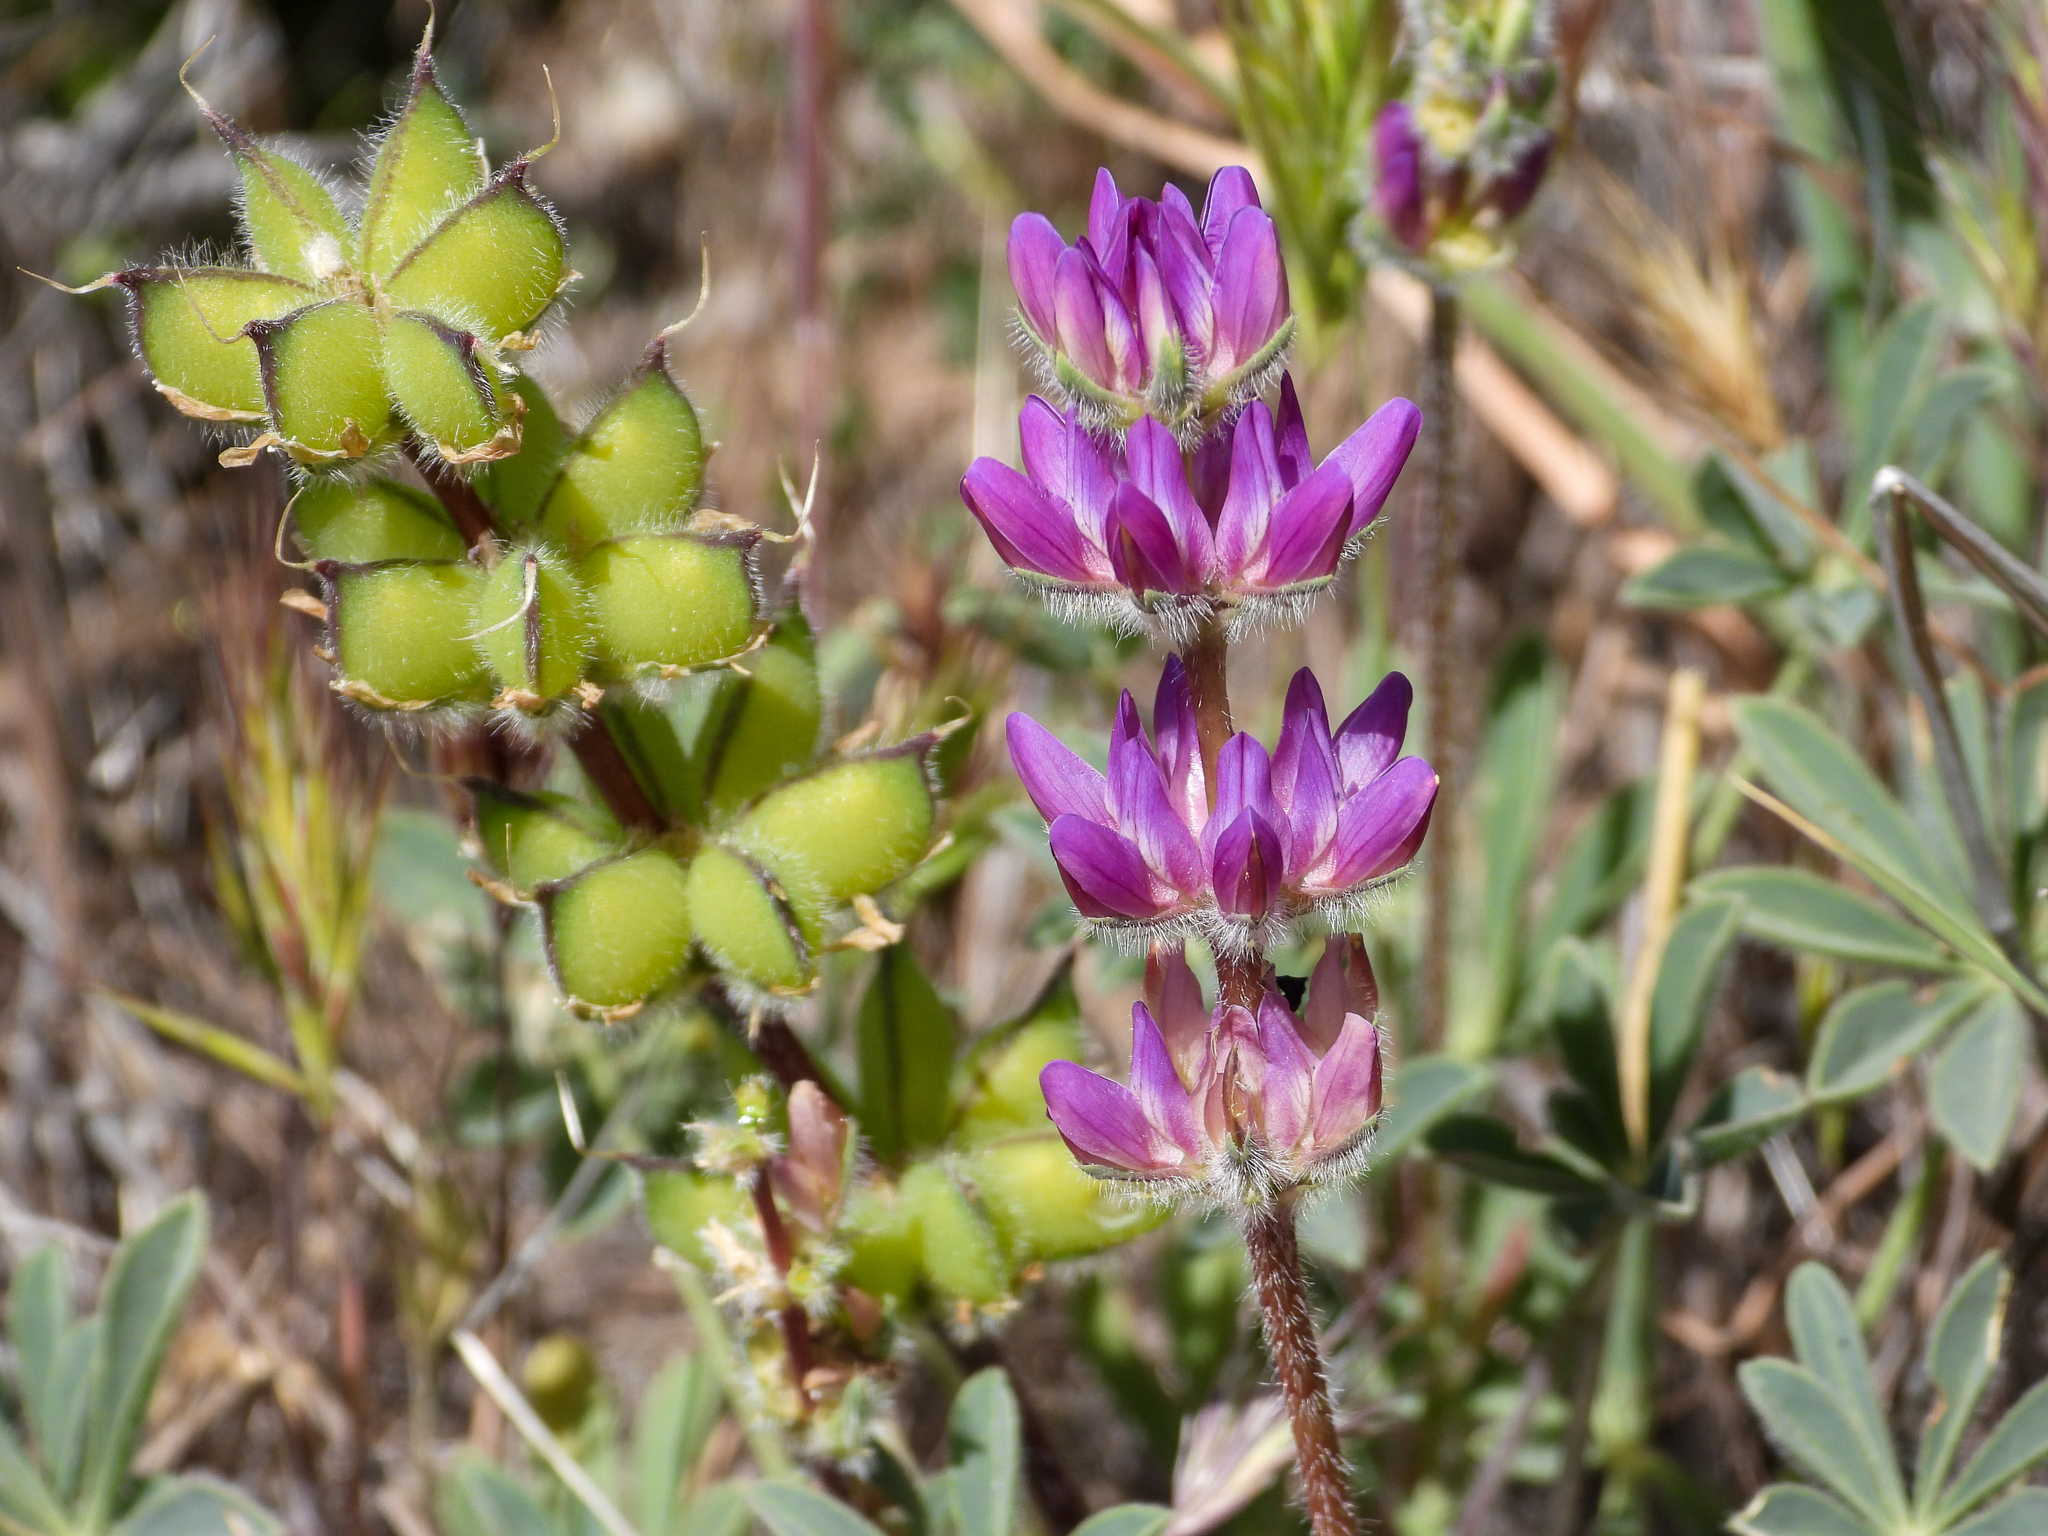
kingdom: Plantae
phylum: Tracheophyta
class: Magnoliopsida
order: Fabales
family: Fabaceae
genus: Lupinus
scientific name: Lupinus microcarpus
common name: Chick lupine
